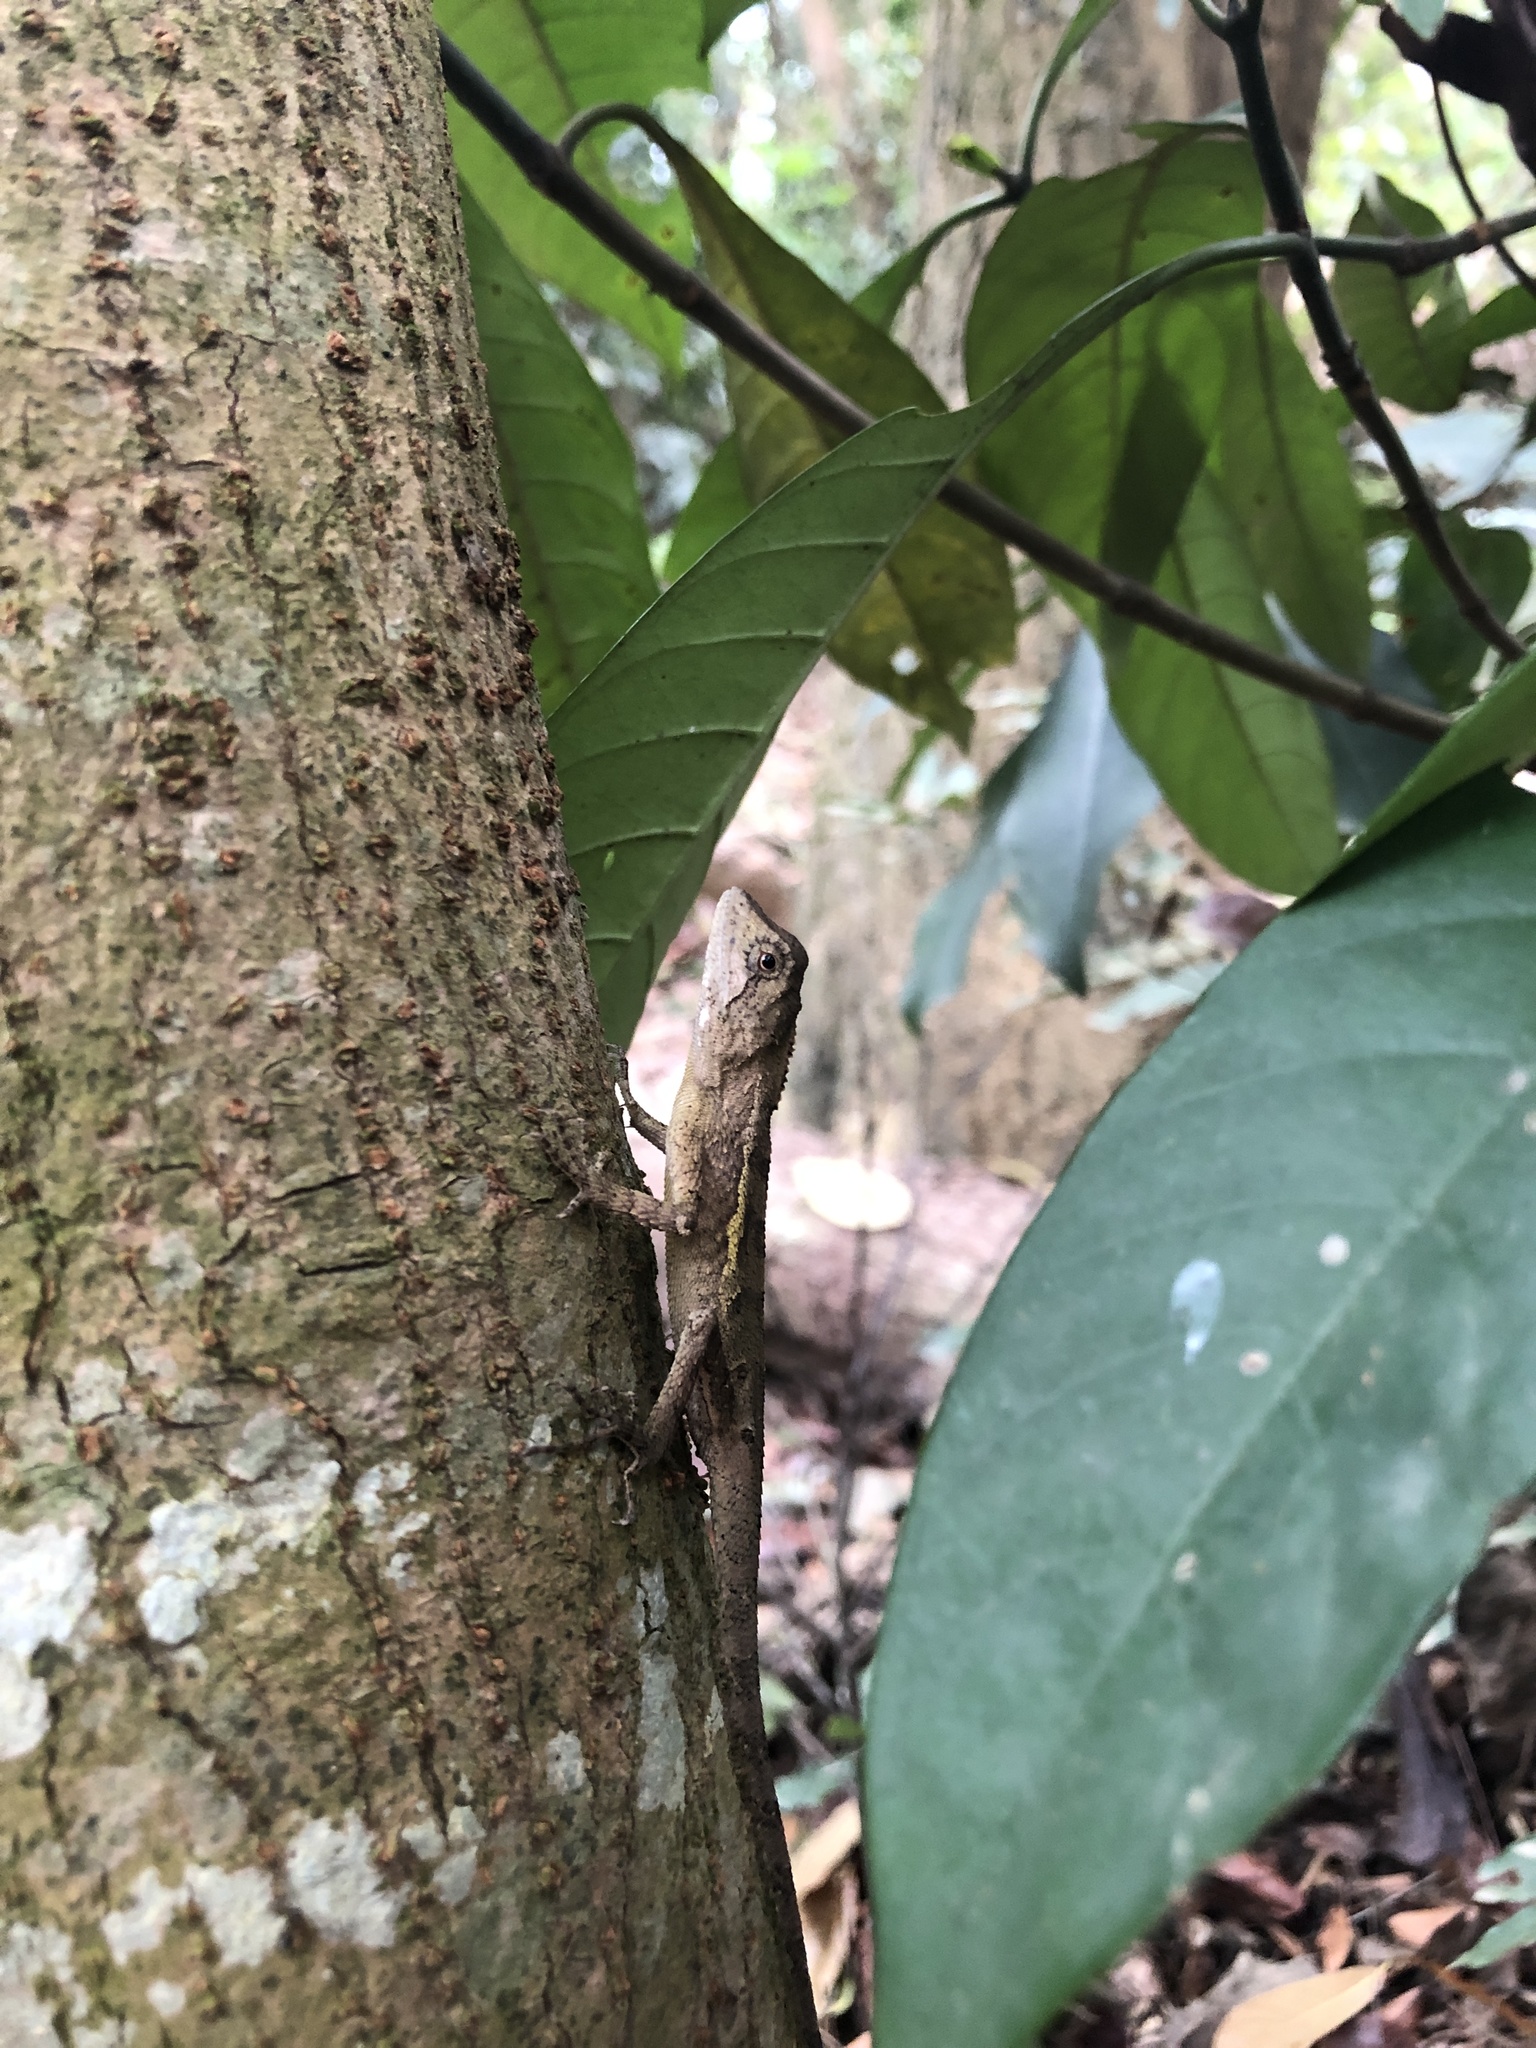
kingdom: Animalia
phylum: Chordata
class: Squamata
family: Agamidae
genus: Diploderma
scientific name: Diploderma swinhonis
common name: Taiwan japalure
